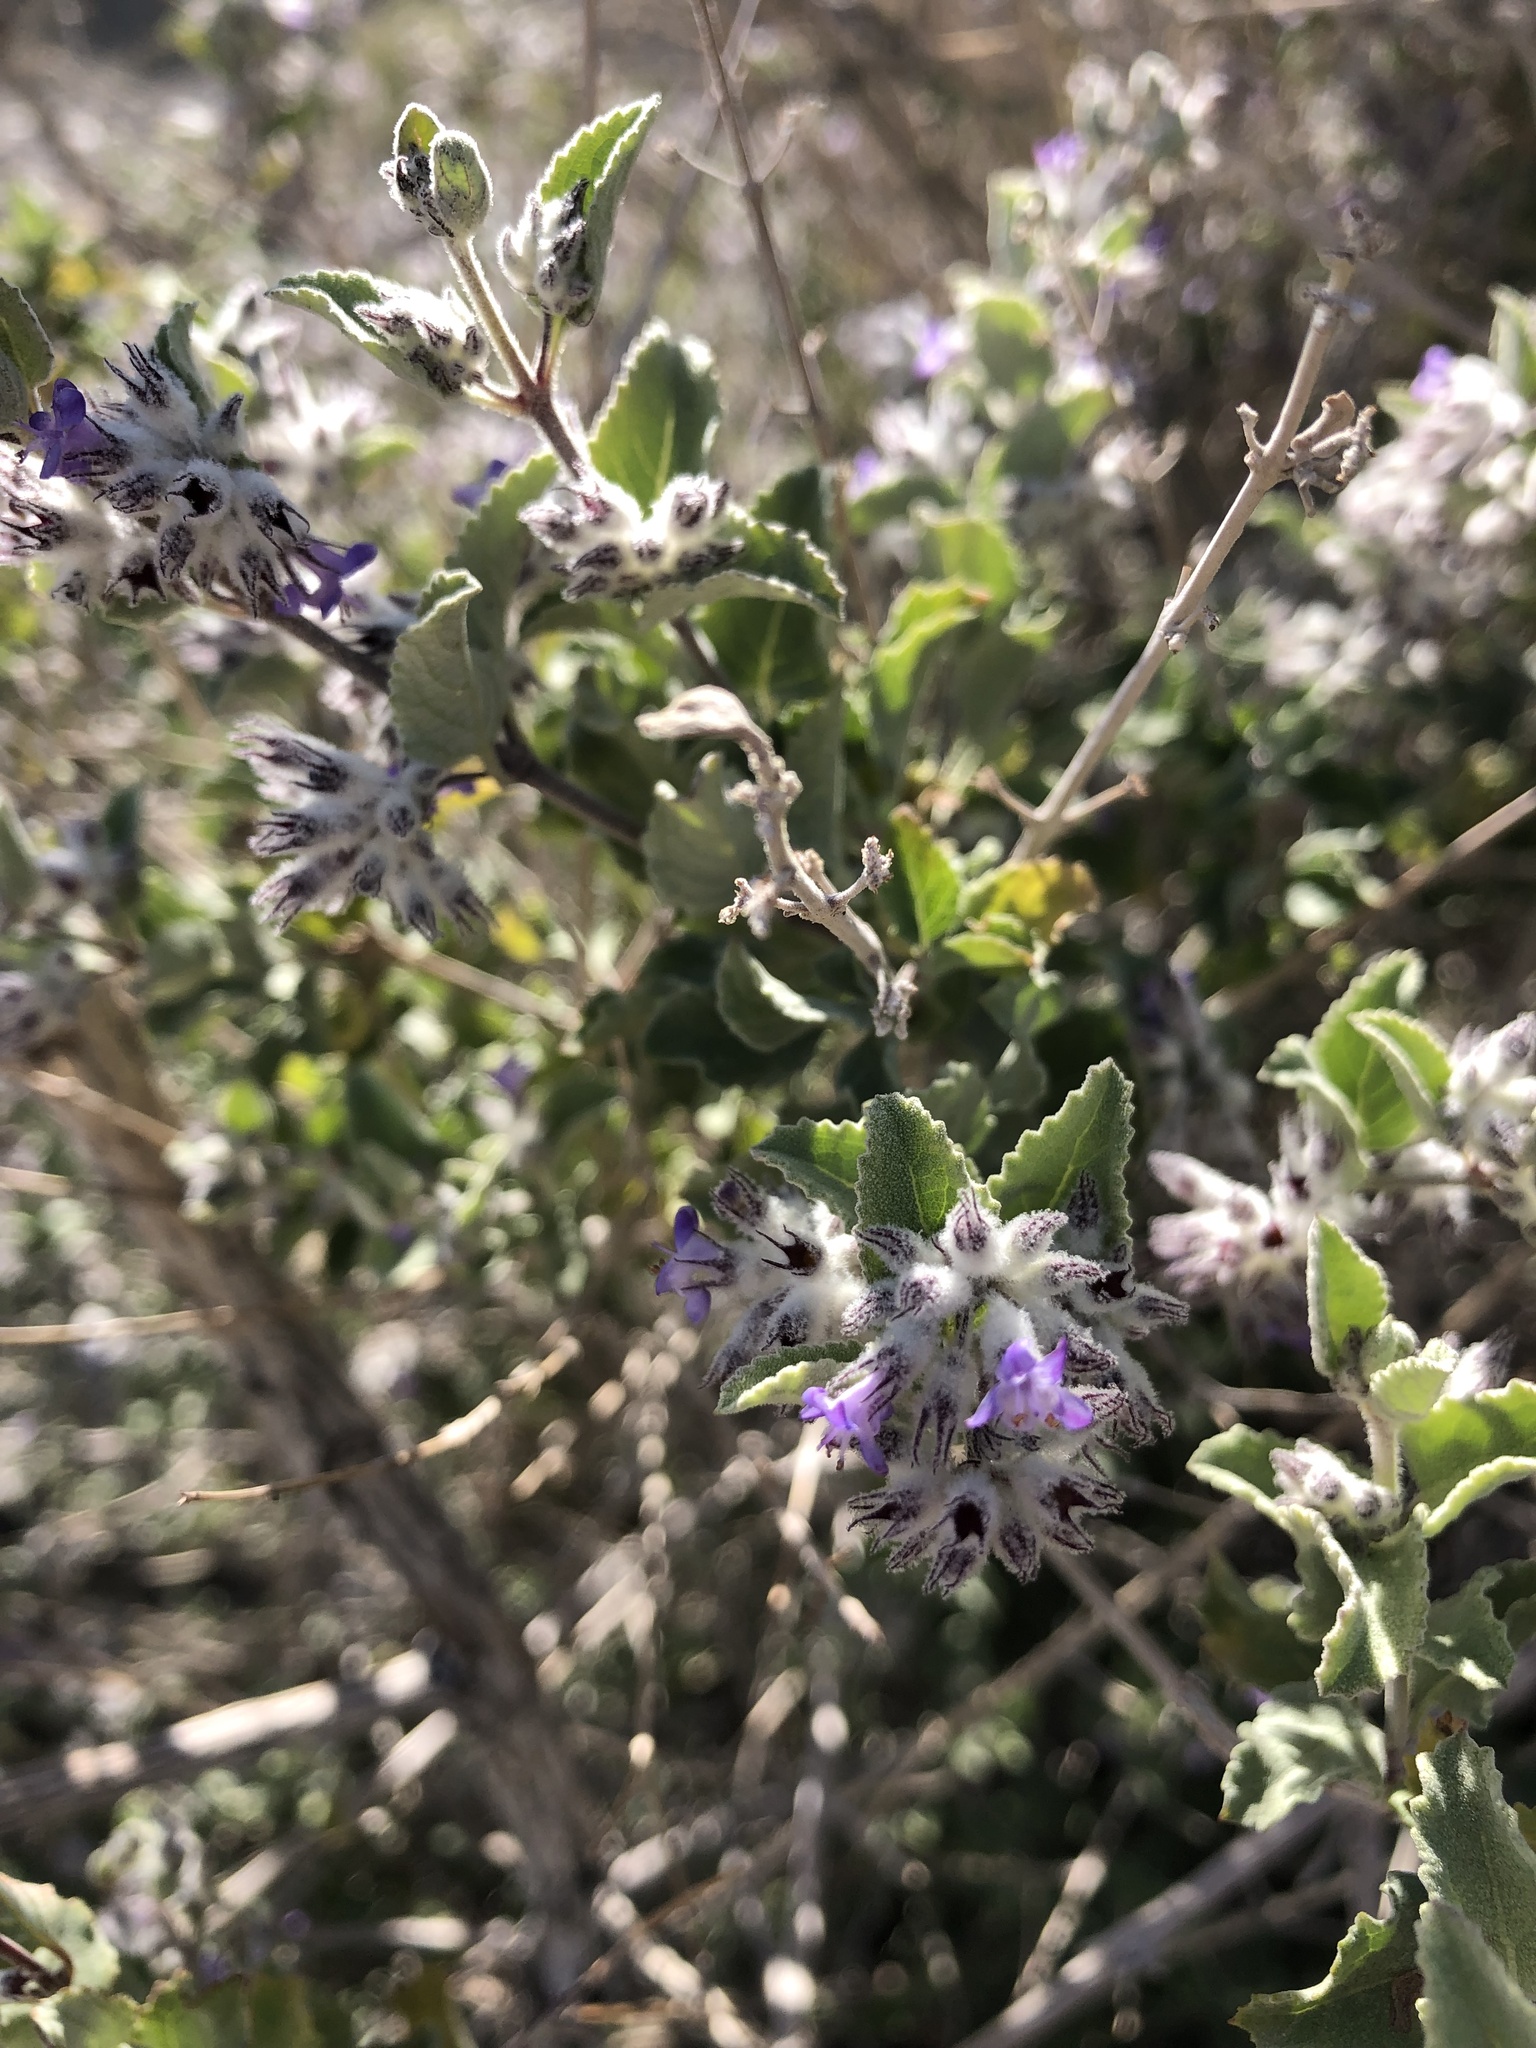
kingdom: Plantae
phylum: Tracheophyta
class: Magnoliopsida
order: Lamiales
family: Lamiaceae
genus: Condea
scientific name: Condea emoryi
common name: Chia
